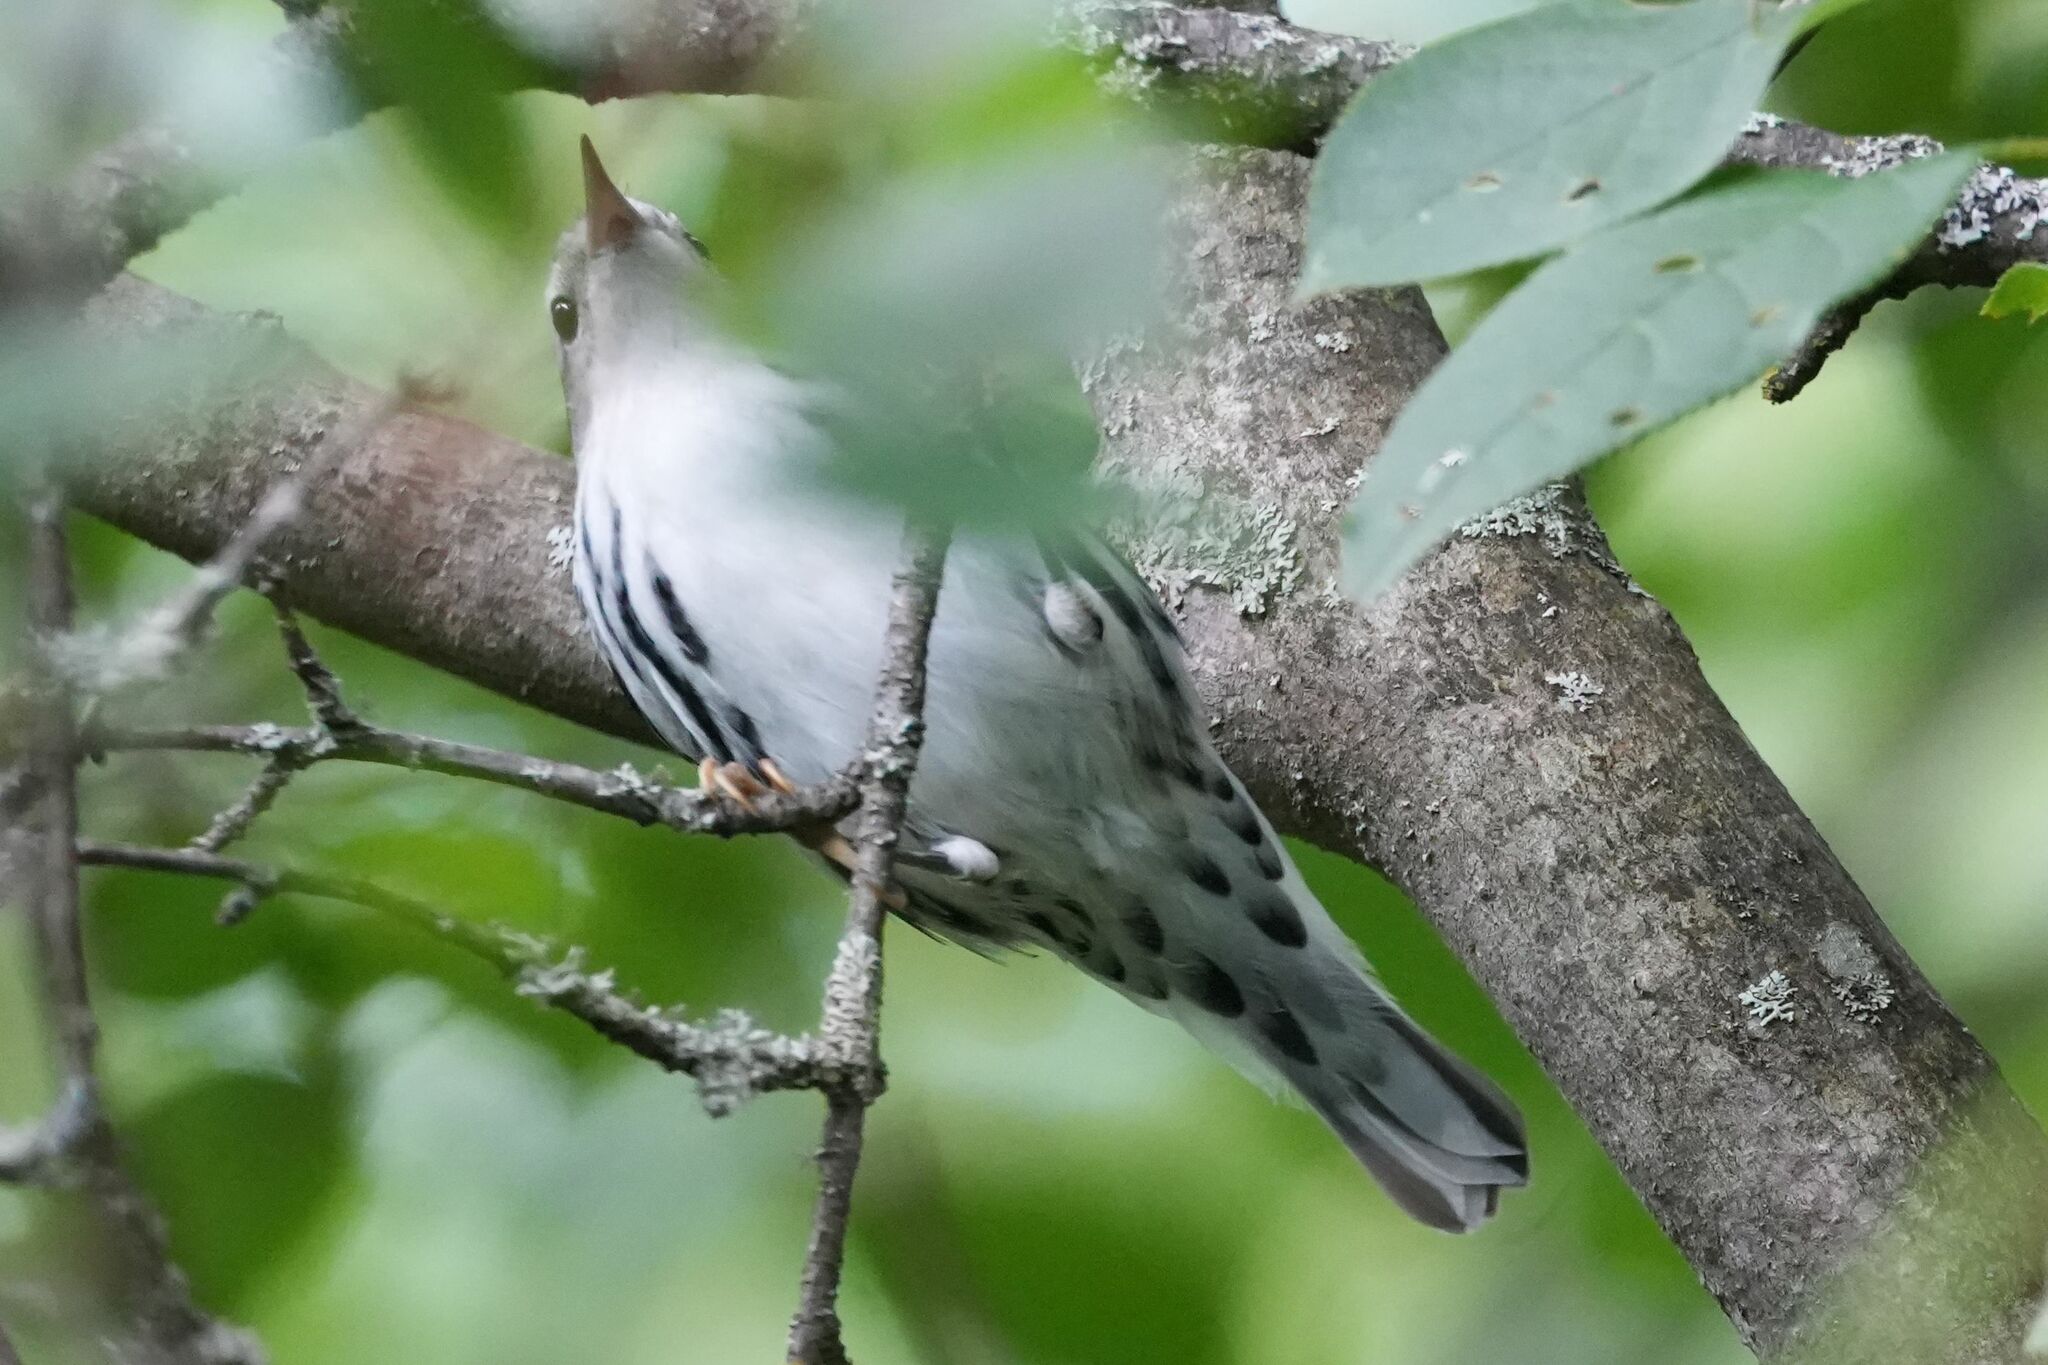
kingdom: Animalia
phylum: Chordata
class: Aves
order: Passeriformes
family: Parulidae
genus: Mniotilta
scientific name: Mniotilta varia
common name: Black-and-white warbler
